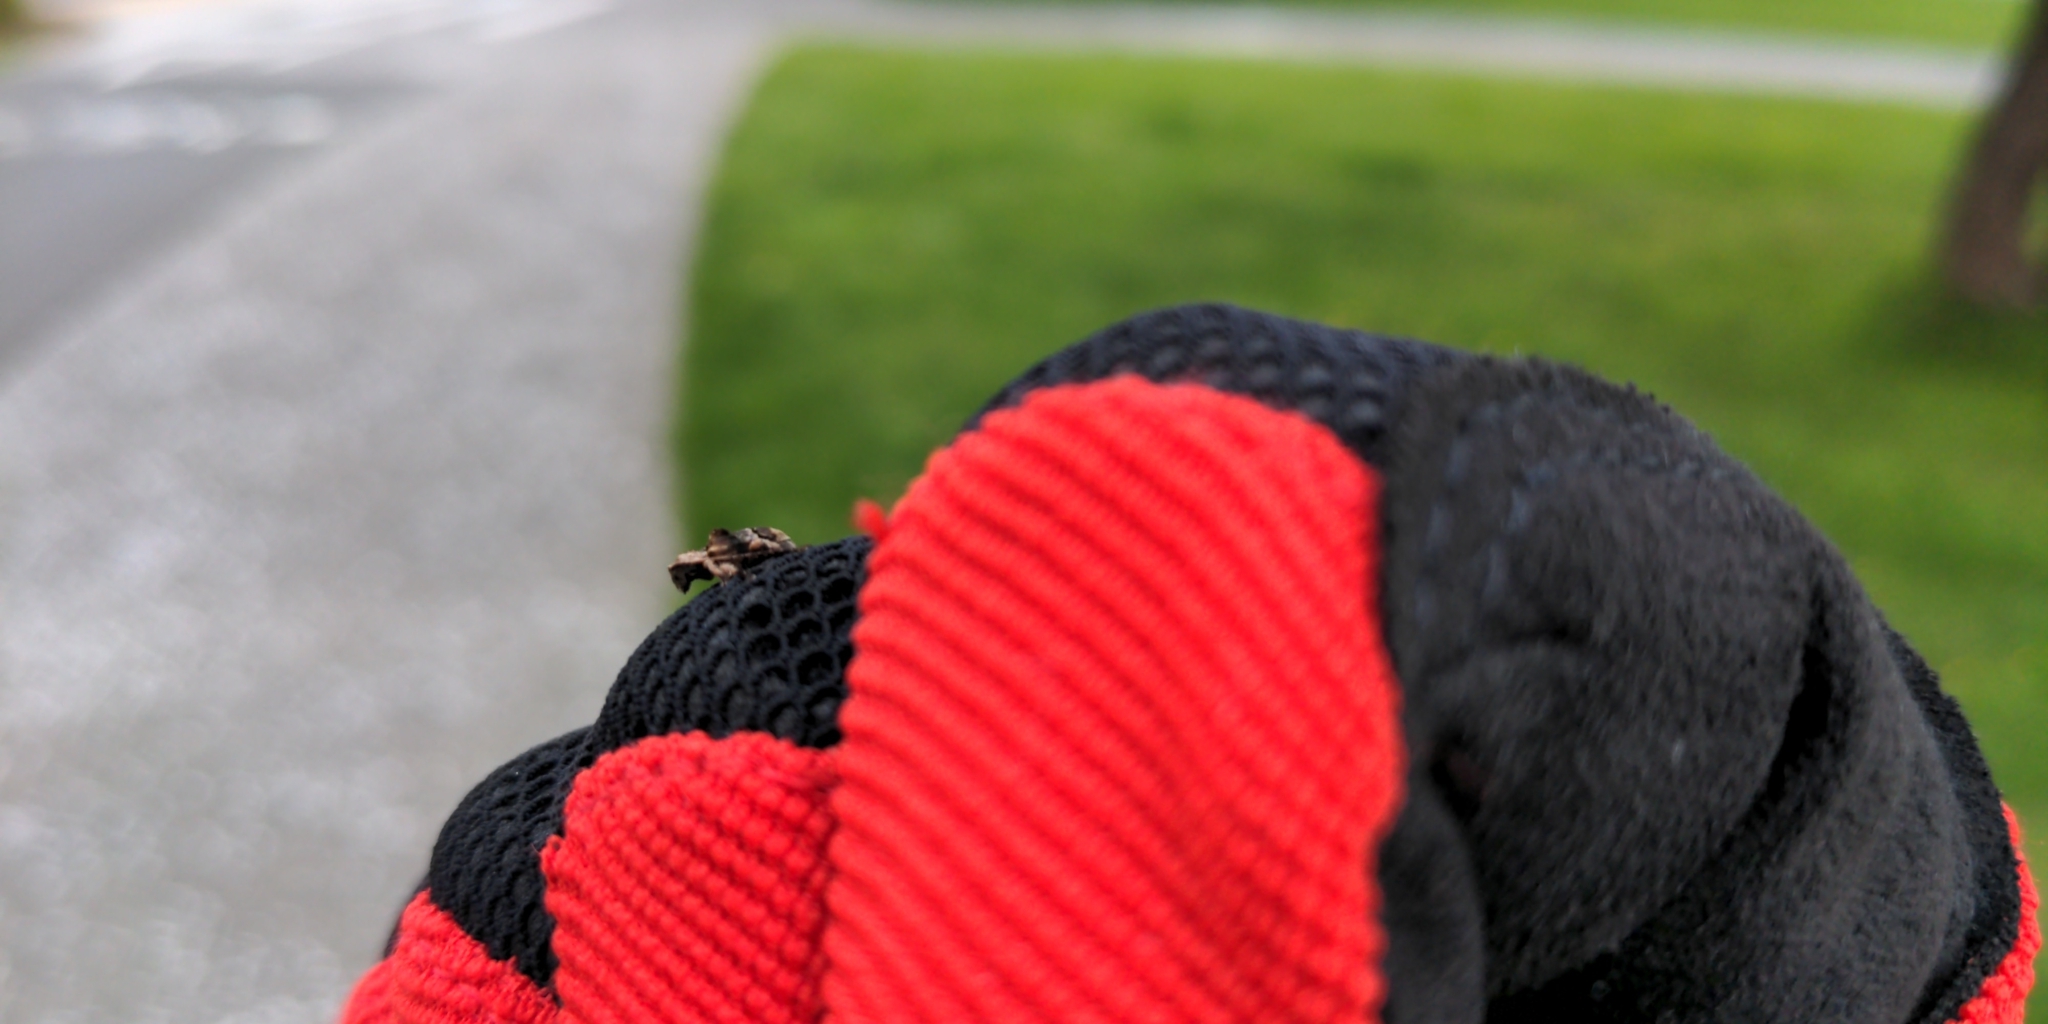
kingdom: Animalia
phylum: Arthropoda
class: Insecta
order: Coleoptera
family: Cerambycidae
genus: Hybolasius
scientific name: Hybolasius cristus
